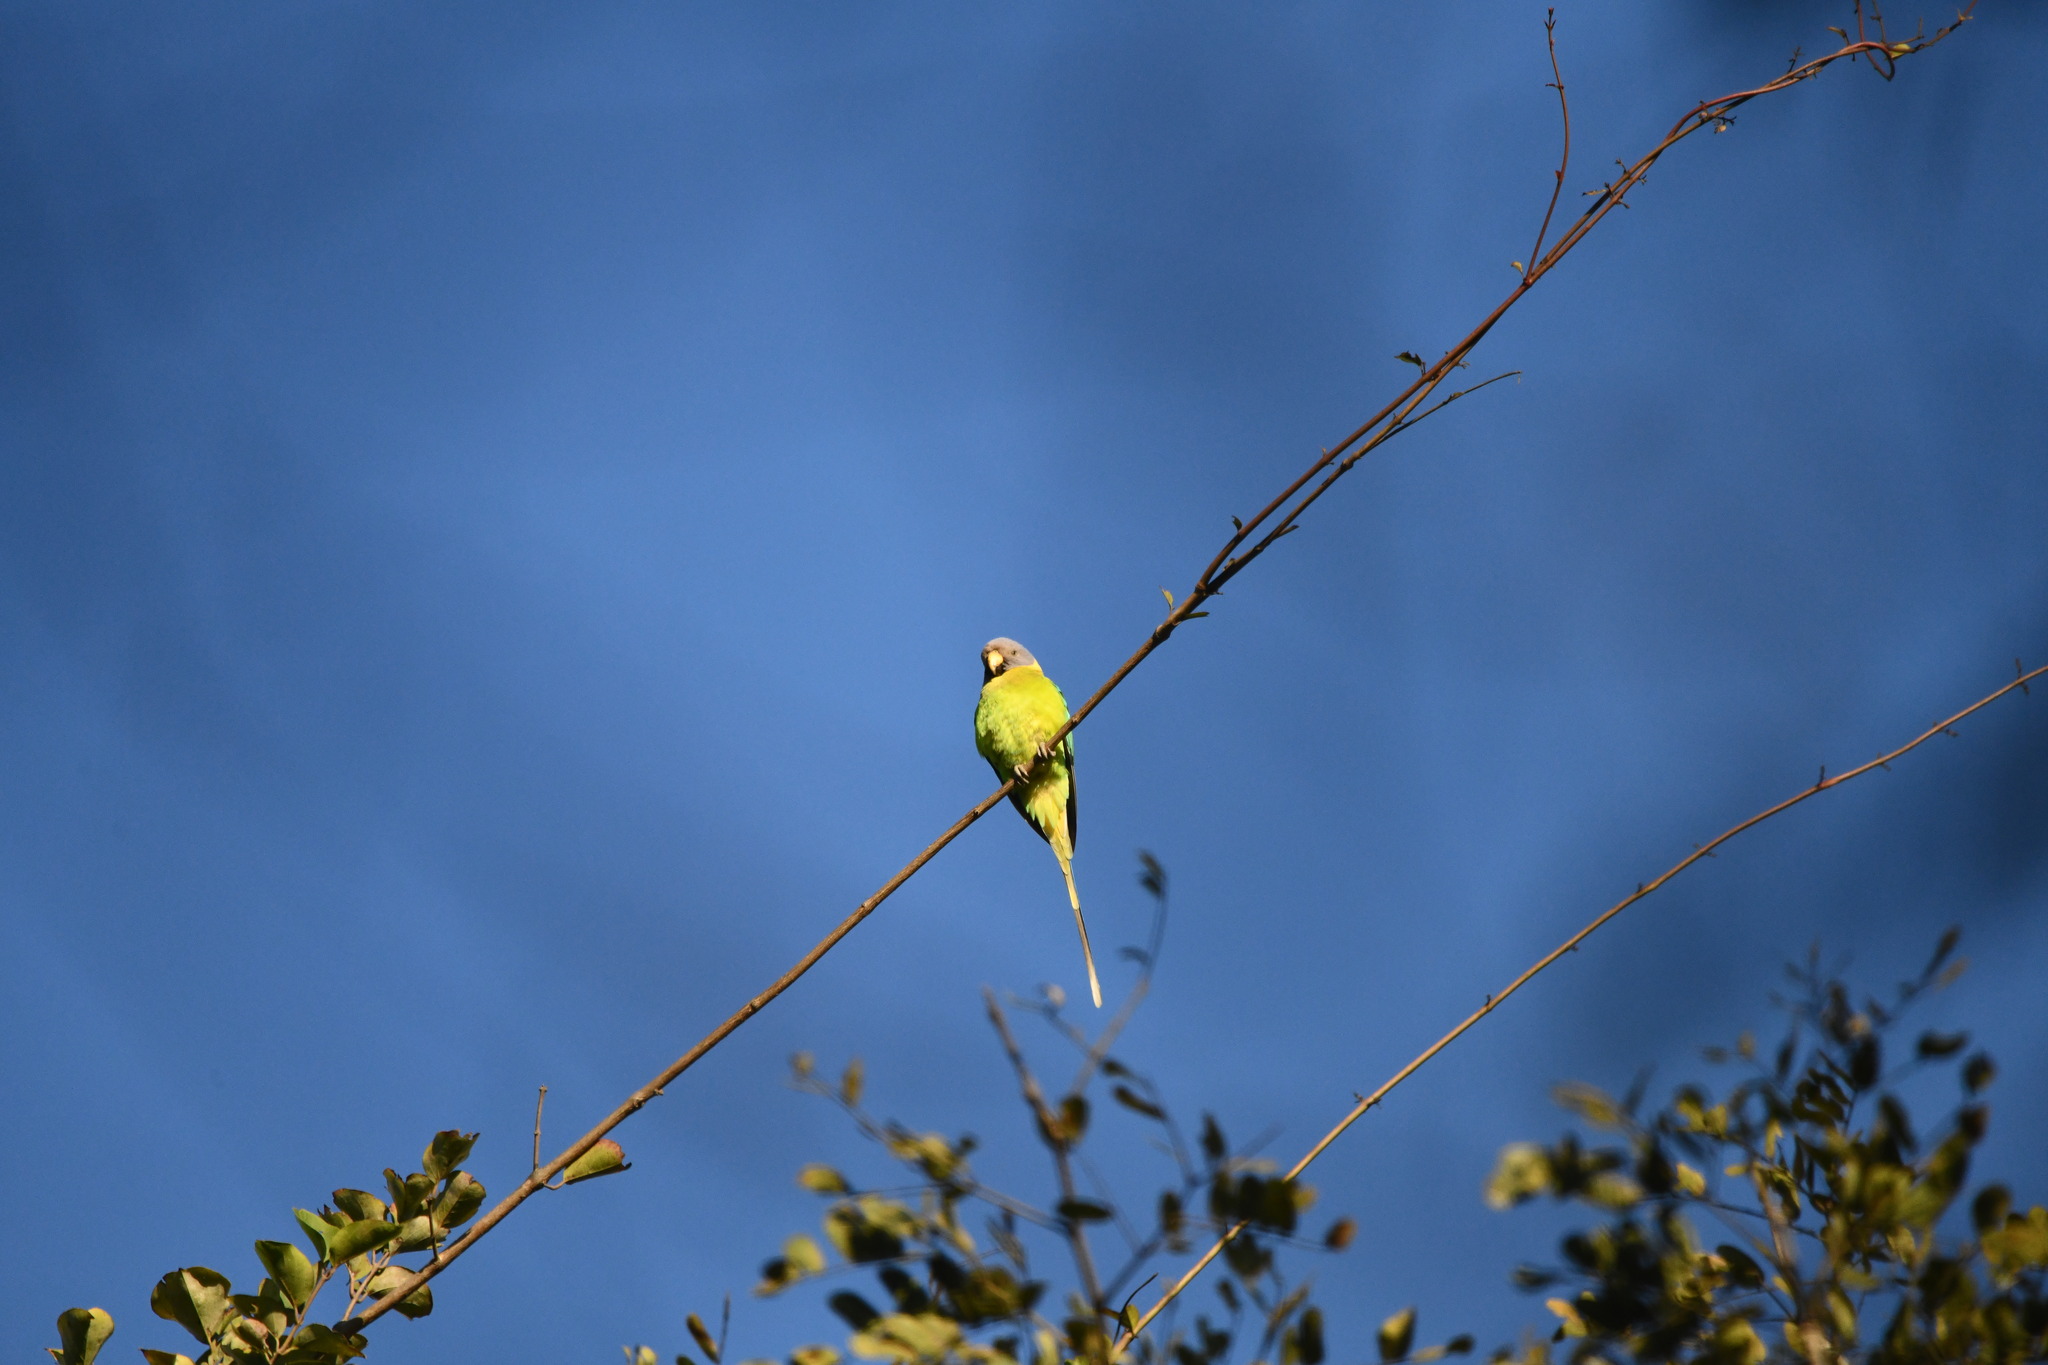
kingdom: Animalia
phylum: Chordata
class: Aves
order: Psittaciformes
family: Psittacidae
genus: Psittacula
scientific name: Psittacula cyanocephala
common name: Plum-headed parakeet
